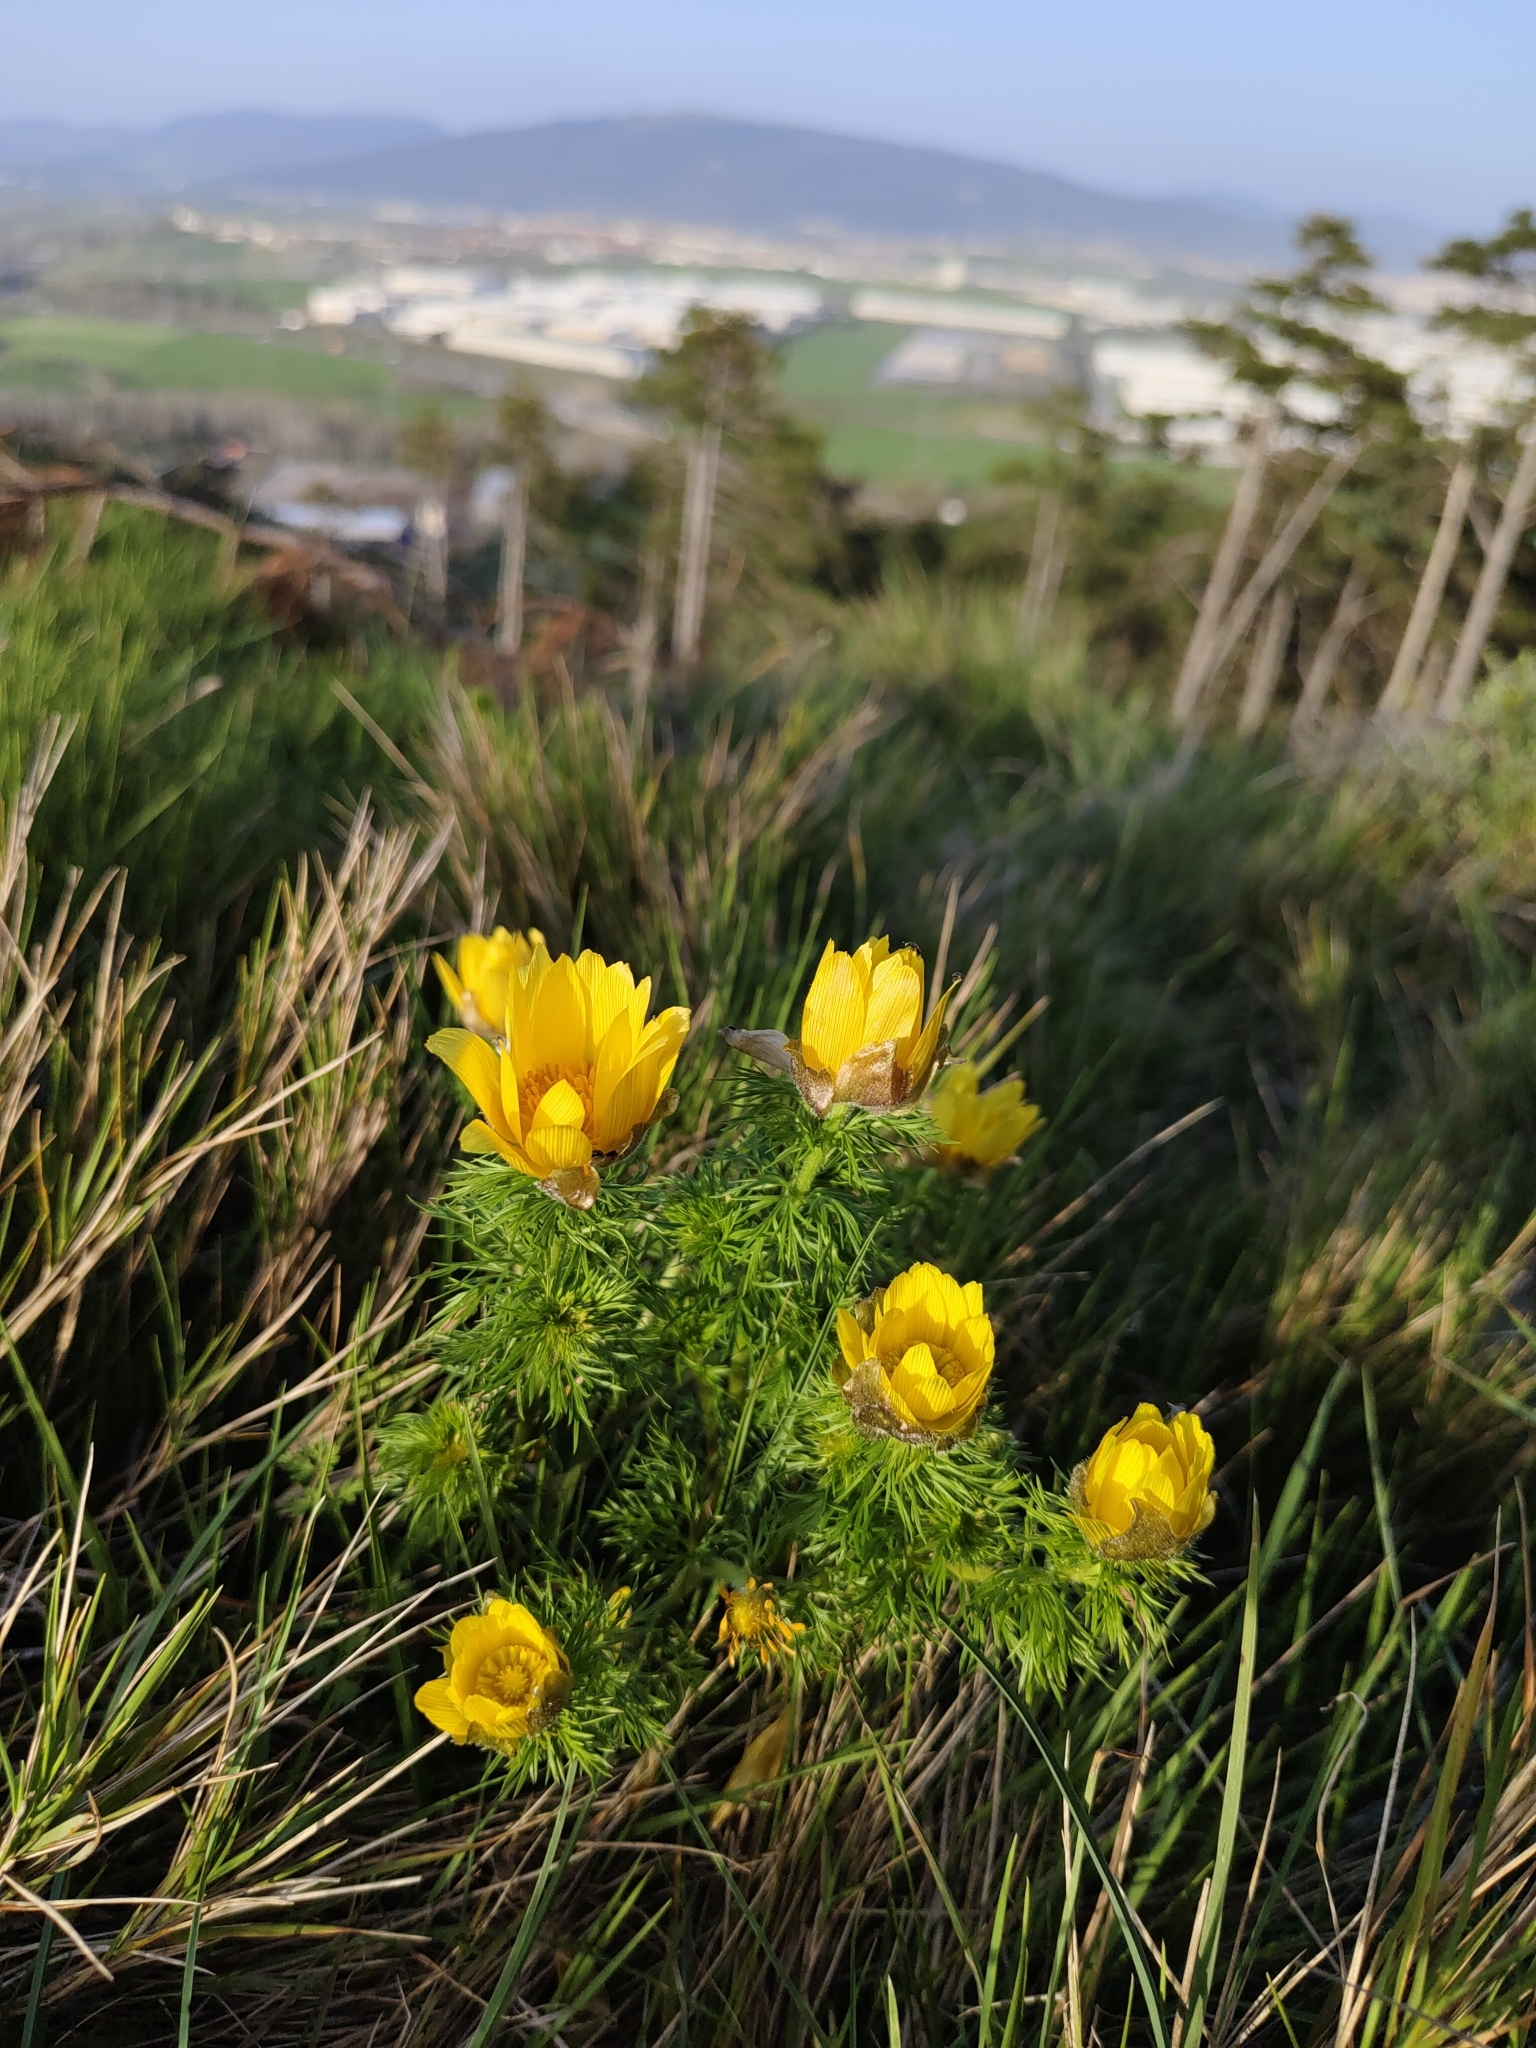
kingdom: Plantae
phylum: Tracheophyta
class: Magnoliopsida
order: Ranunculales
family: Ranunculaceae
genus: Adonis
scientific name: Adonis vernalis
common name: Yellow pheasants-eye
